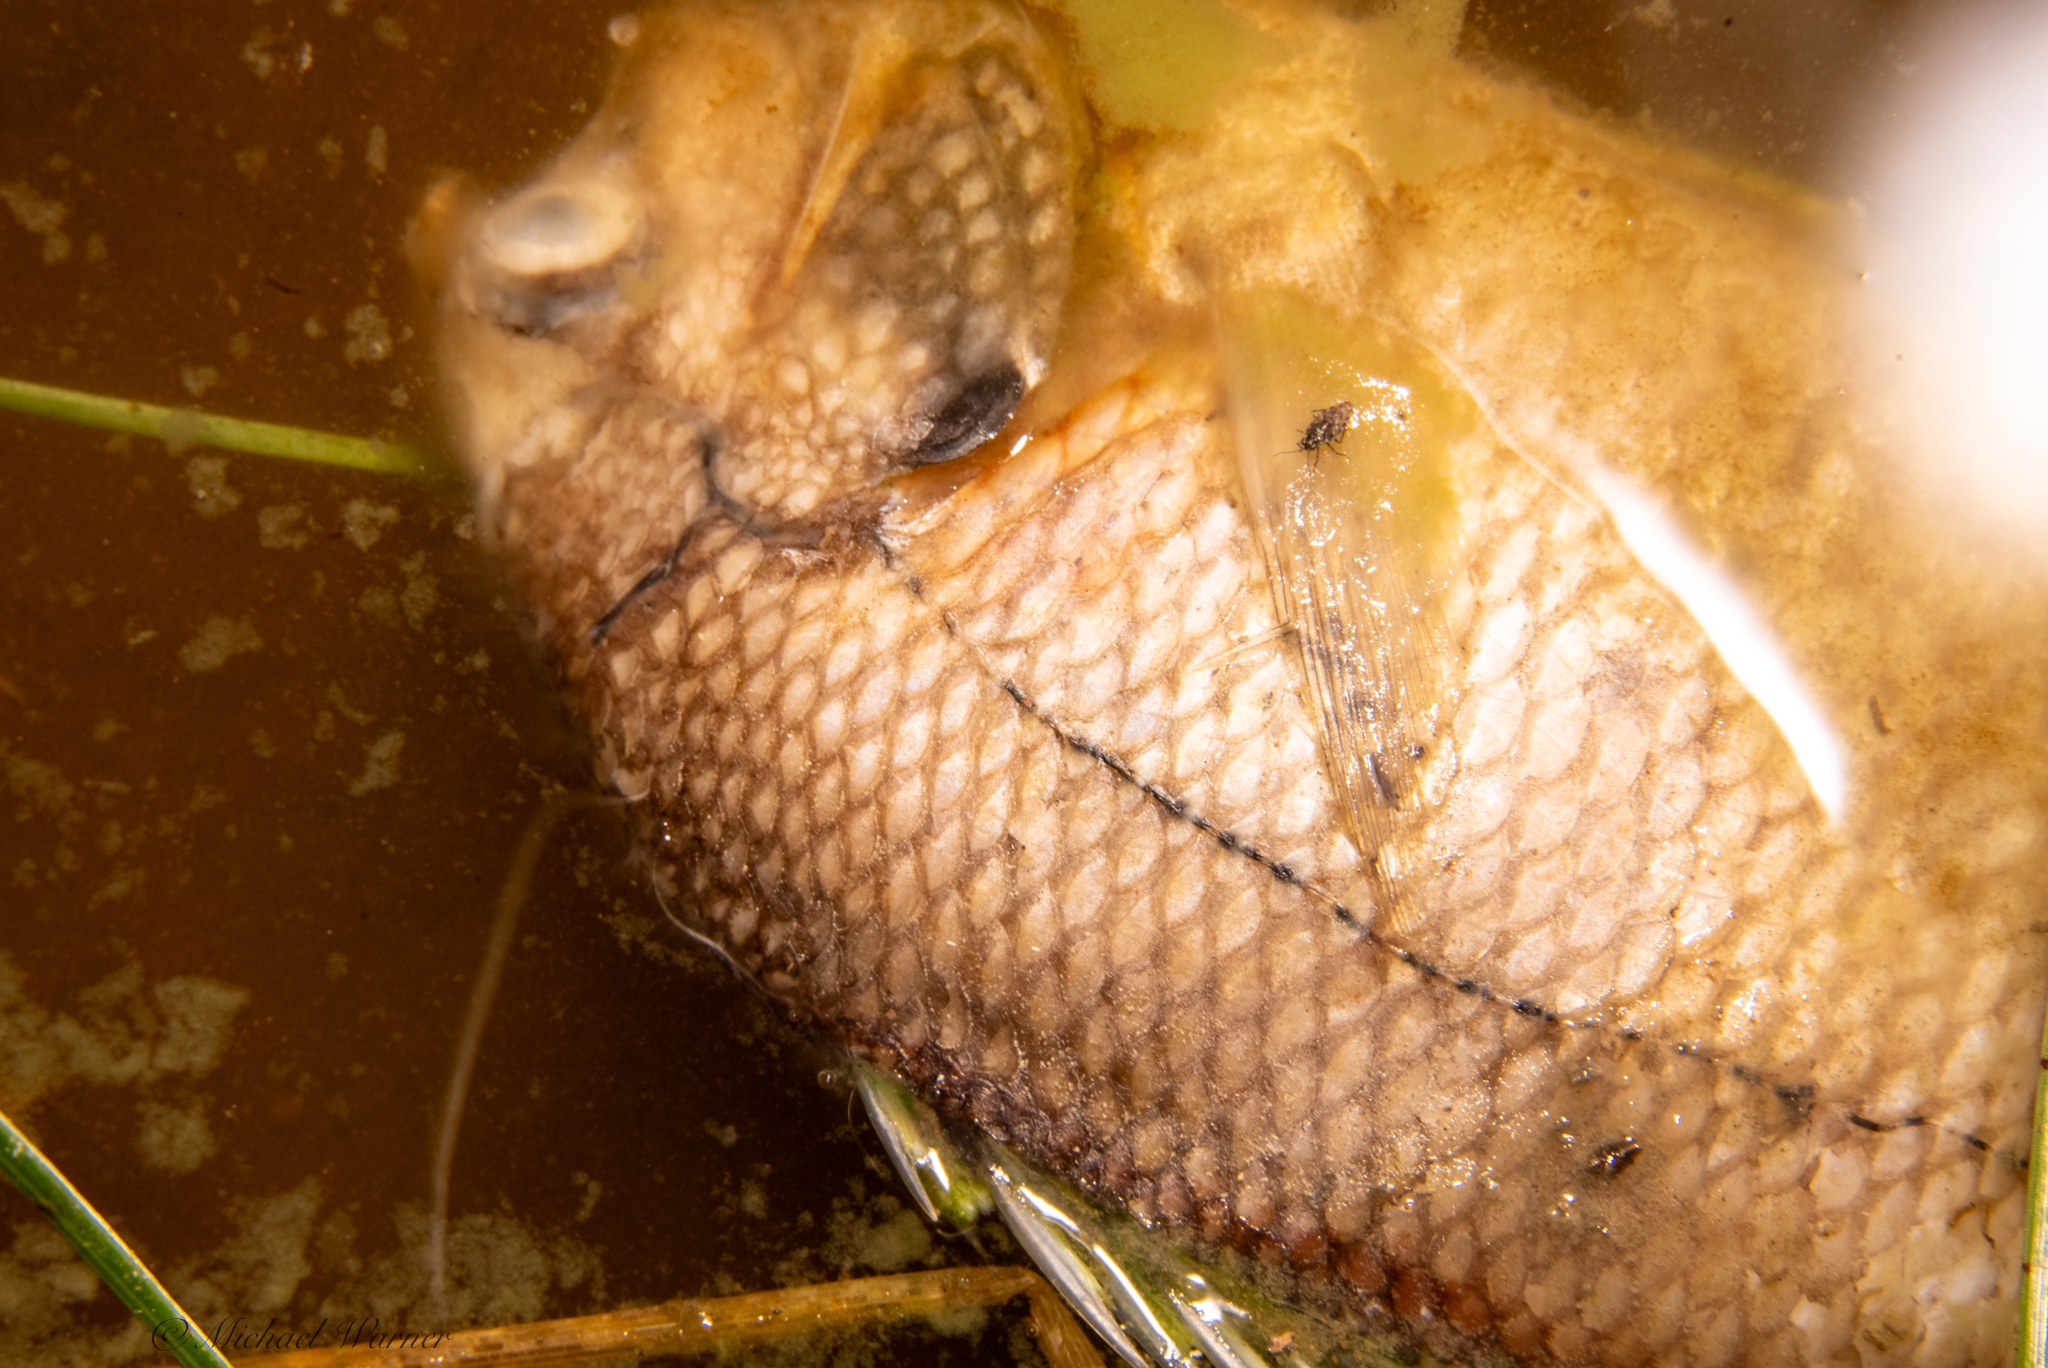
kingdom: Animalia
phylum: Chordata
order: Perciformes
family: Centrarchidae
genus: Lepomis
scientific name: Lepomis macrochirus
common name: Bluegill
